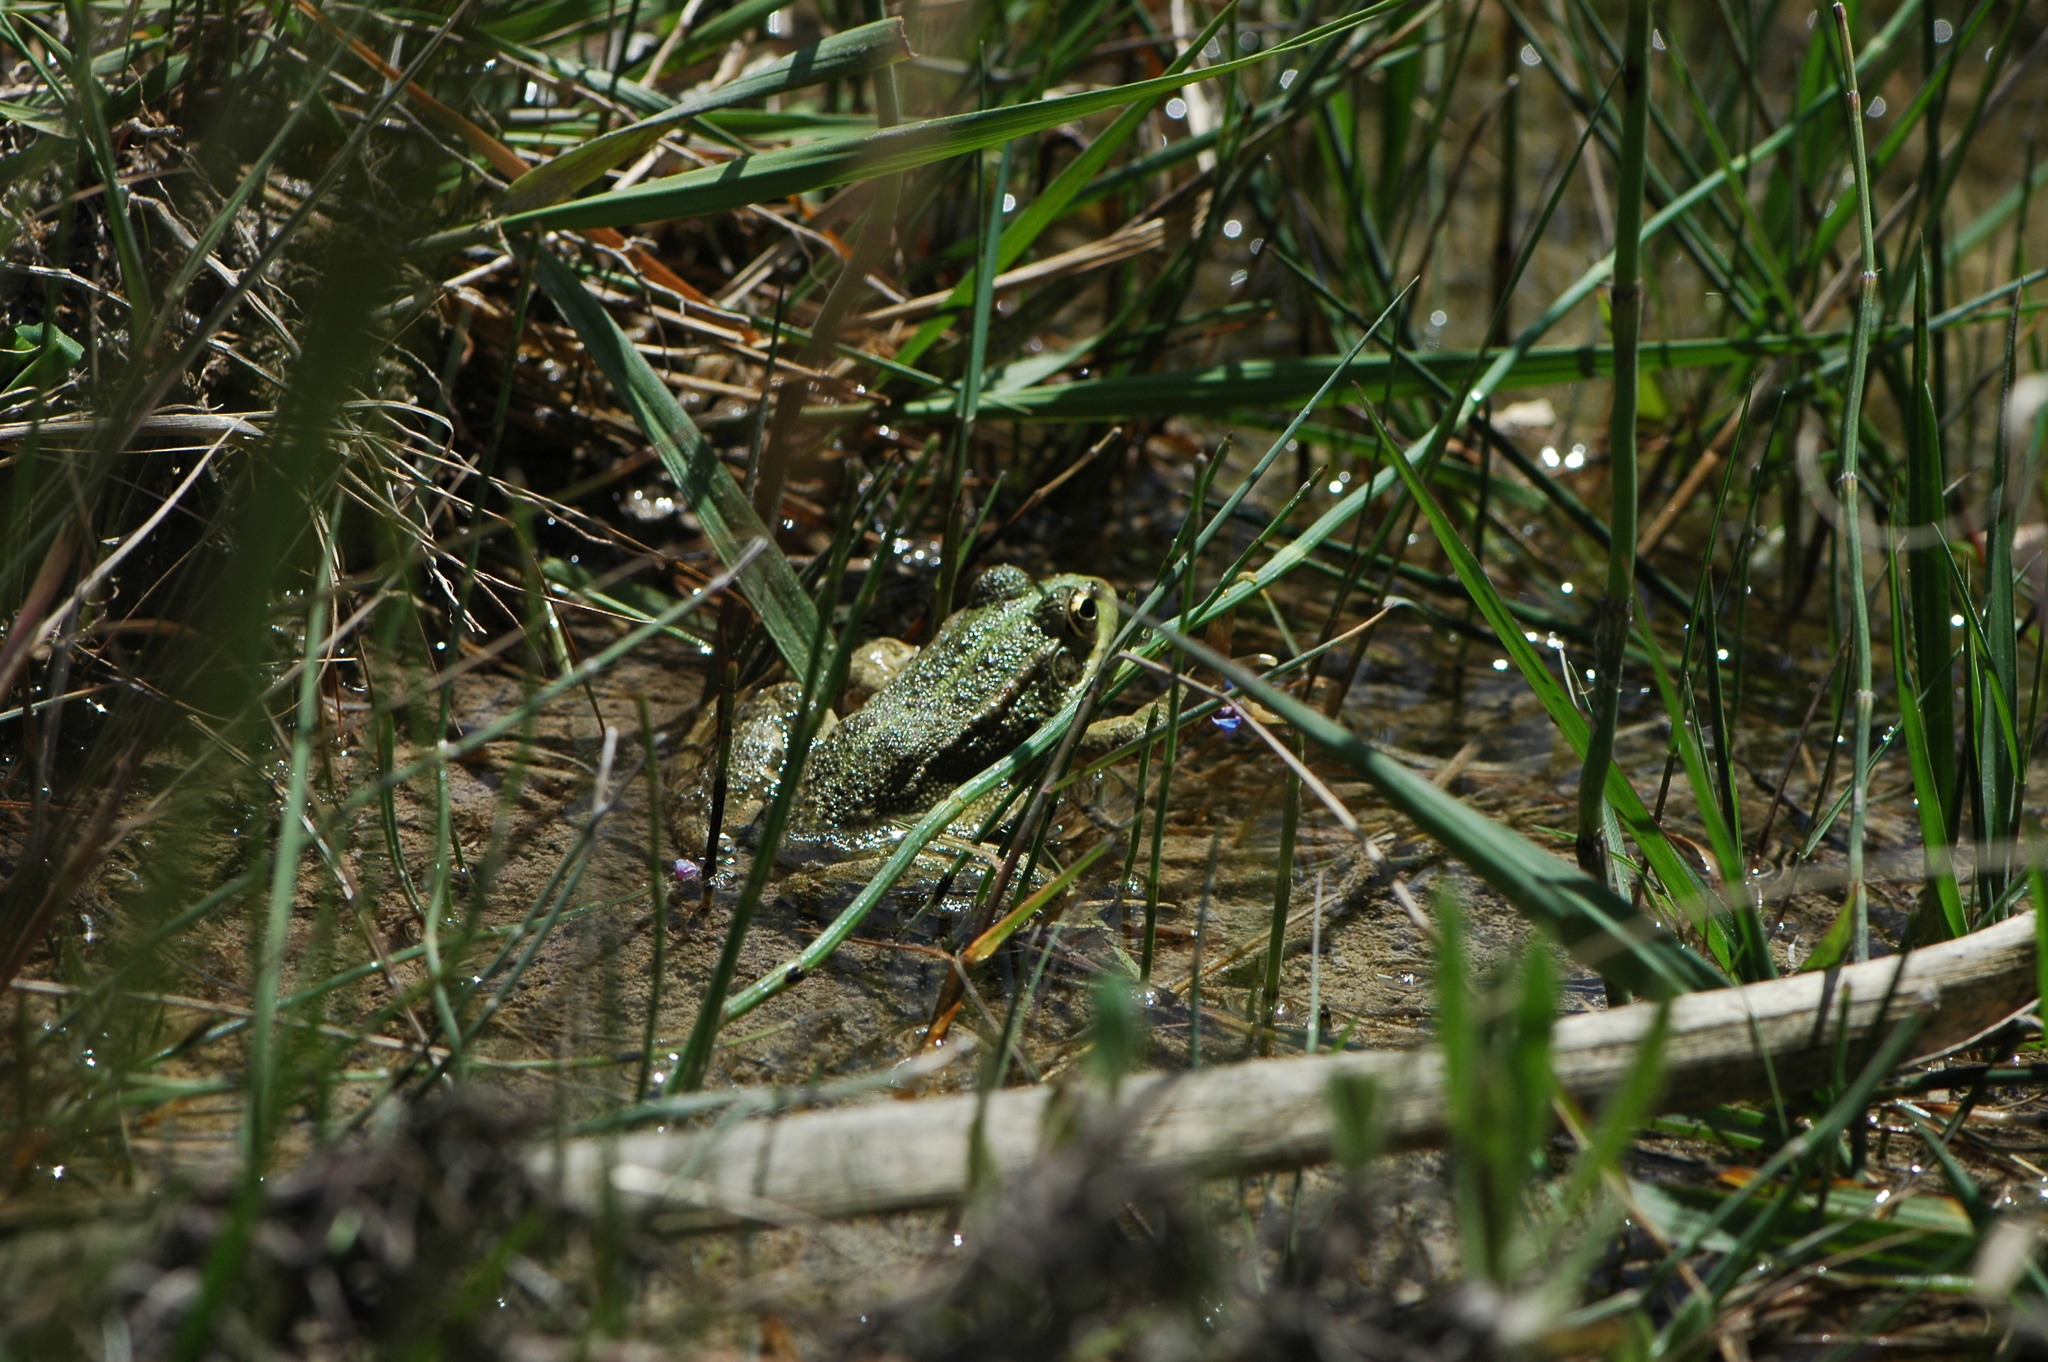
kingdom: Animalia
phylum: Chordata
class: Amphibia
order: Anura
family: Ranidae
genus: Pelophylax
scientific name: Pelophylax perezi
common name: Perez's frog
